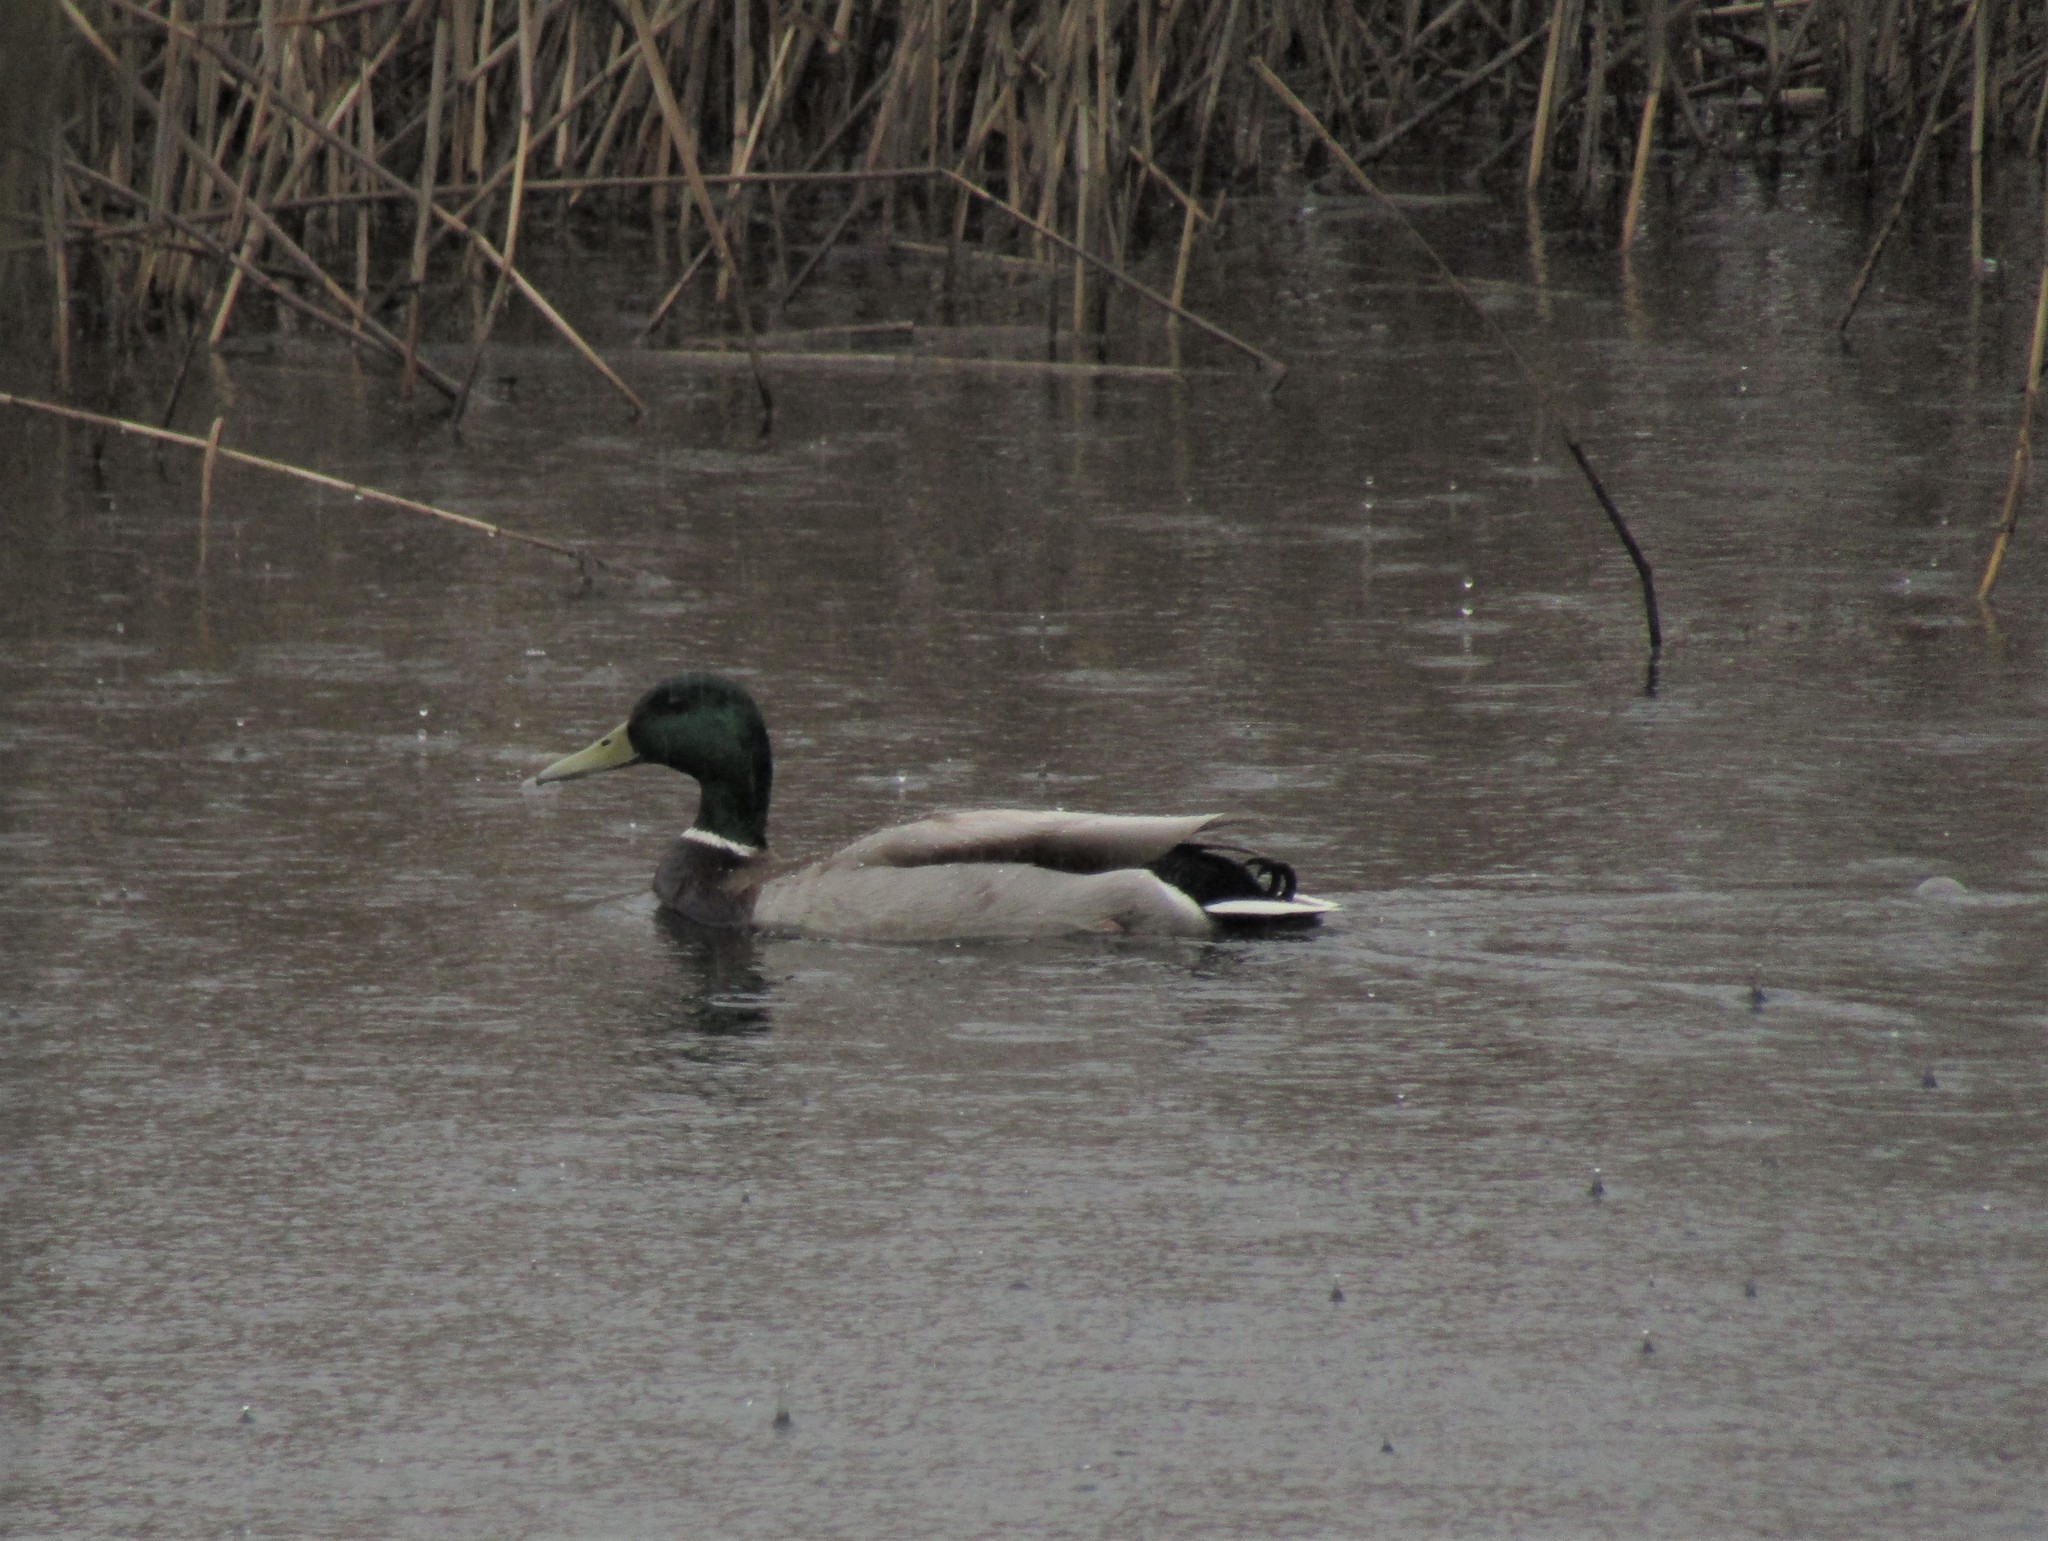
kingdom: Animalia
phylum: Chordata
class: Aves
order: Anseriformes
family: Anatidae
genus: Anas
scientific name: Anas platyrhynchos
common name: Mallard
